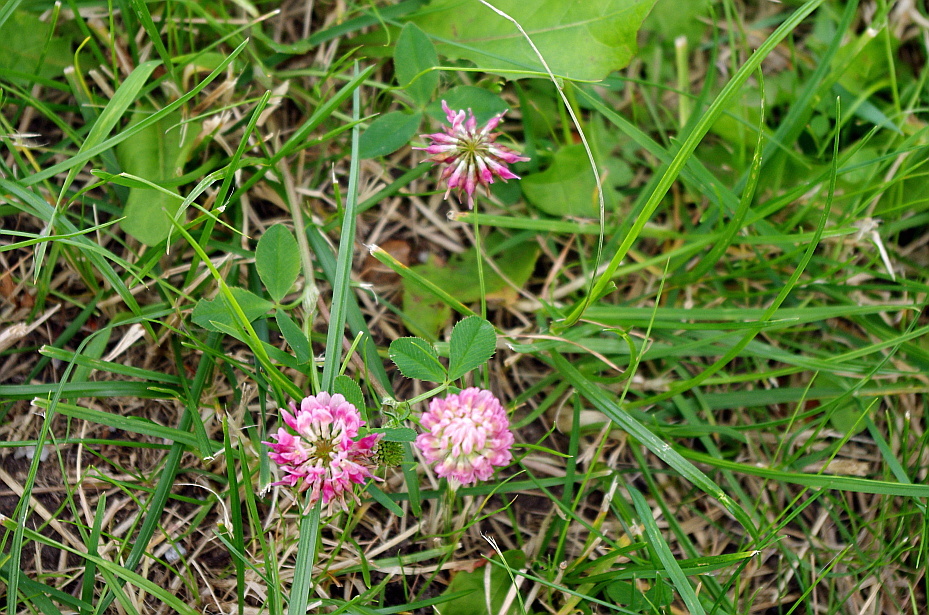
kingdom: Plantae
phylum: Tracheophyta
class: Magnoliopsida
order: Fabales
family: Fabaceae
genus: Trifolium
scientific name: Trifolium hybridum
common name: Alsike clover
